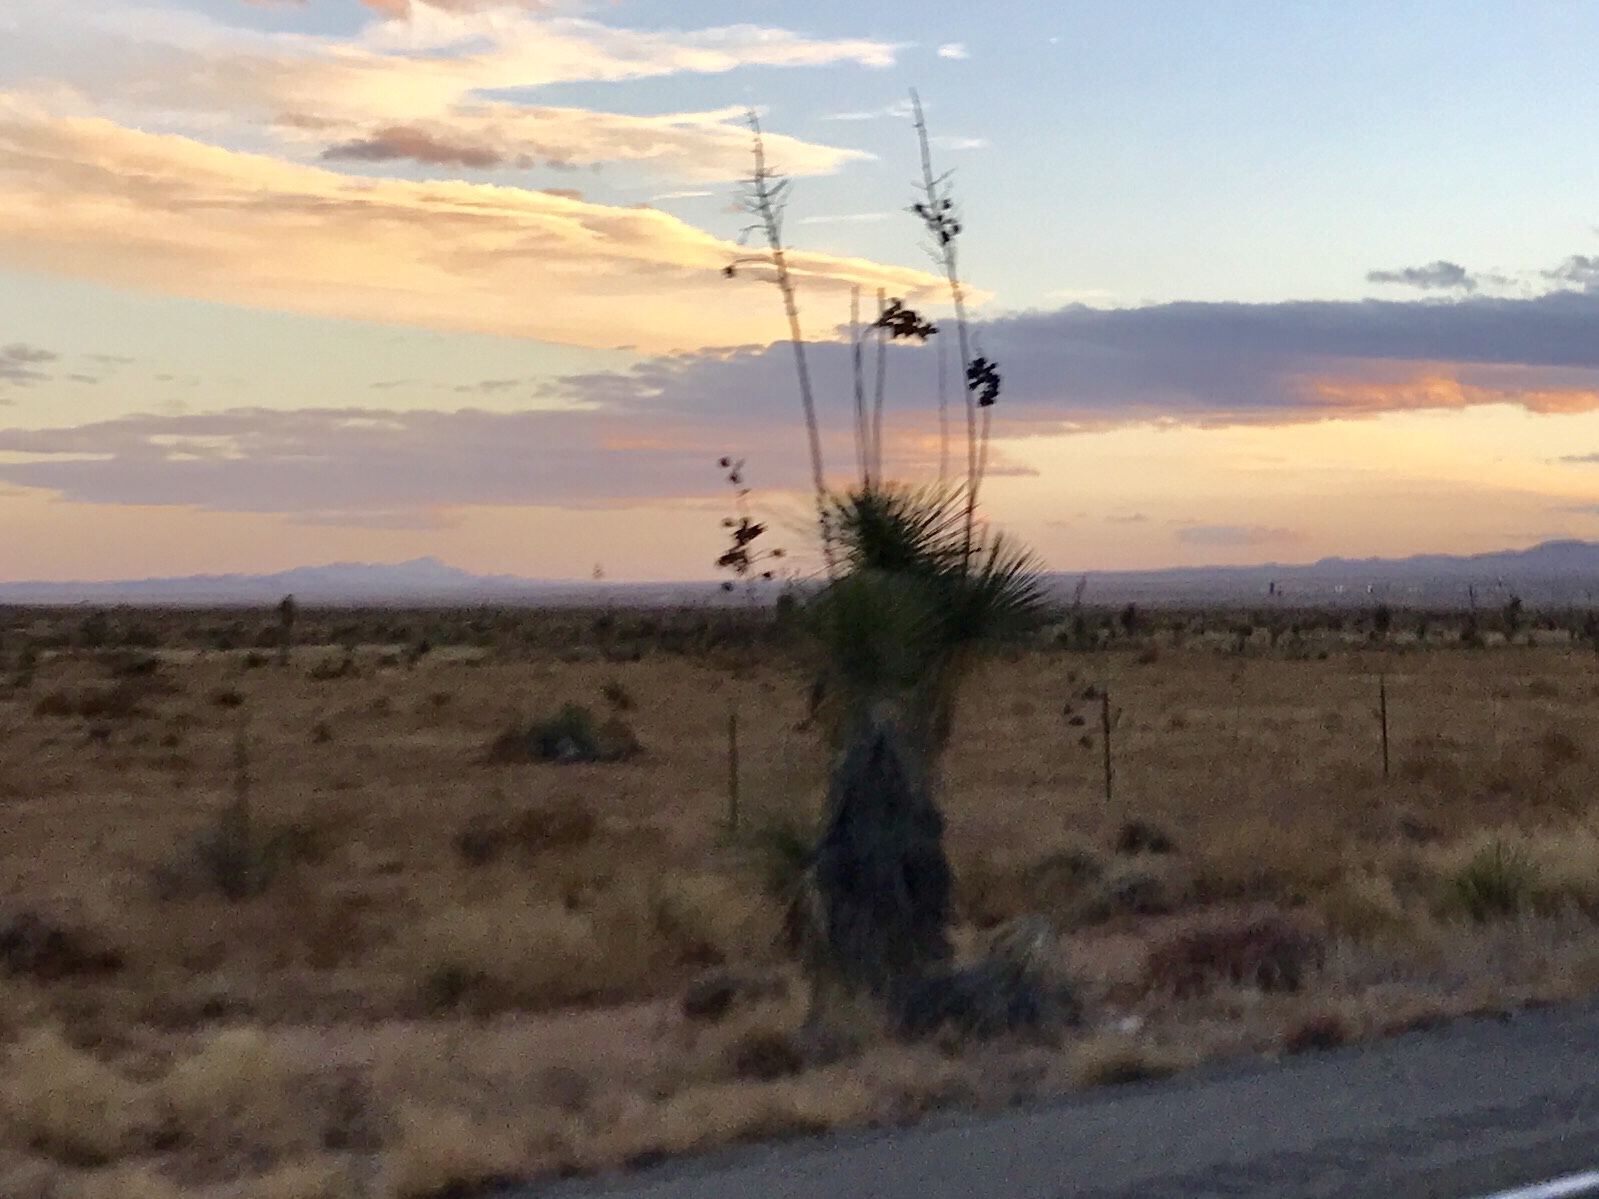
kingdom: Plantae
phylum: Tracheophyta
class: Liliopsida
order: Asparagales
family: Asparagaceae
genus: Yucca
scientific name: Yucca elata
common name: Palmella
